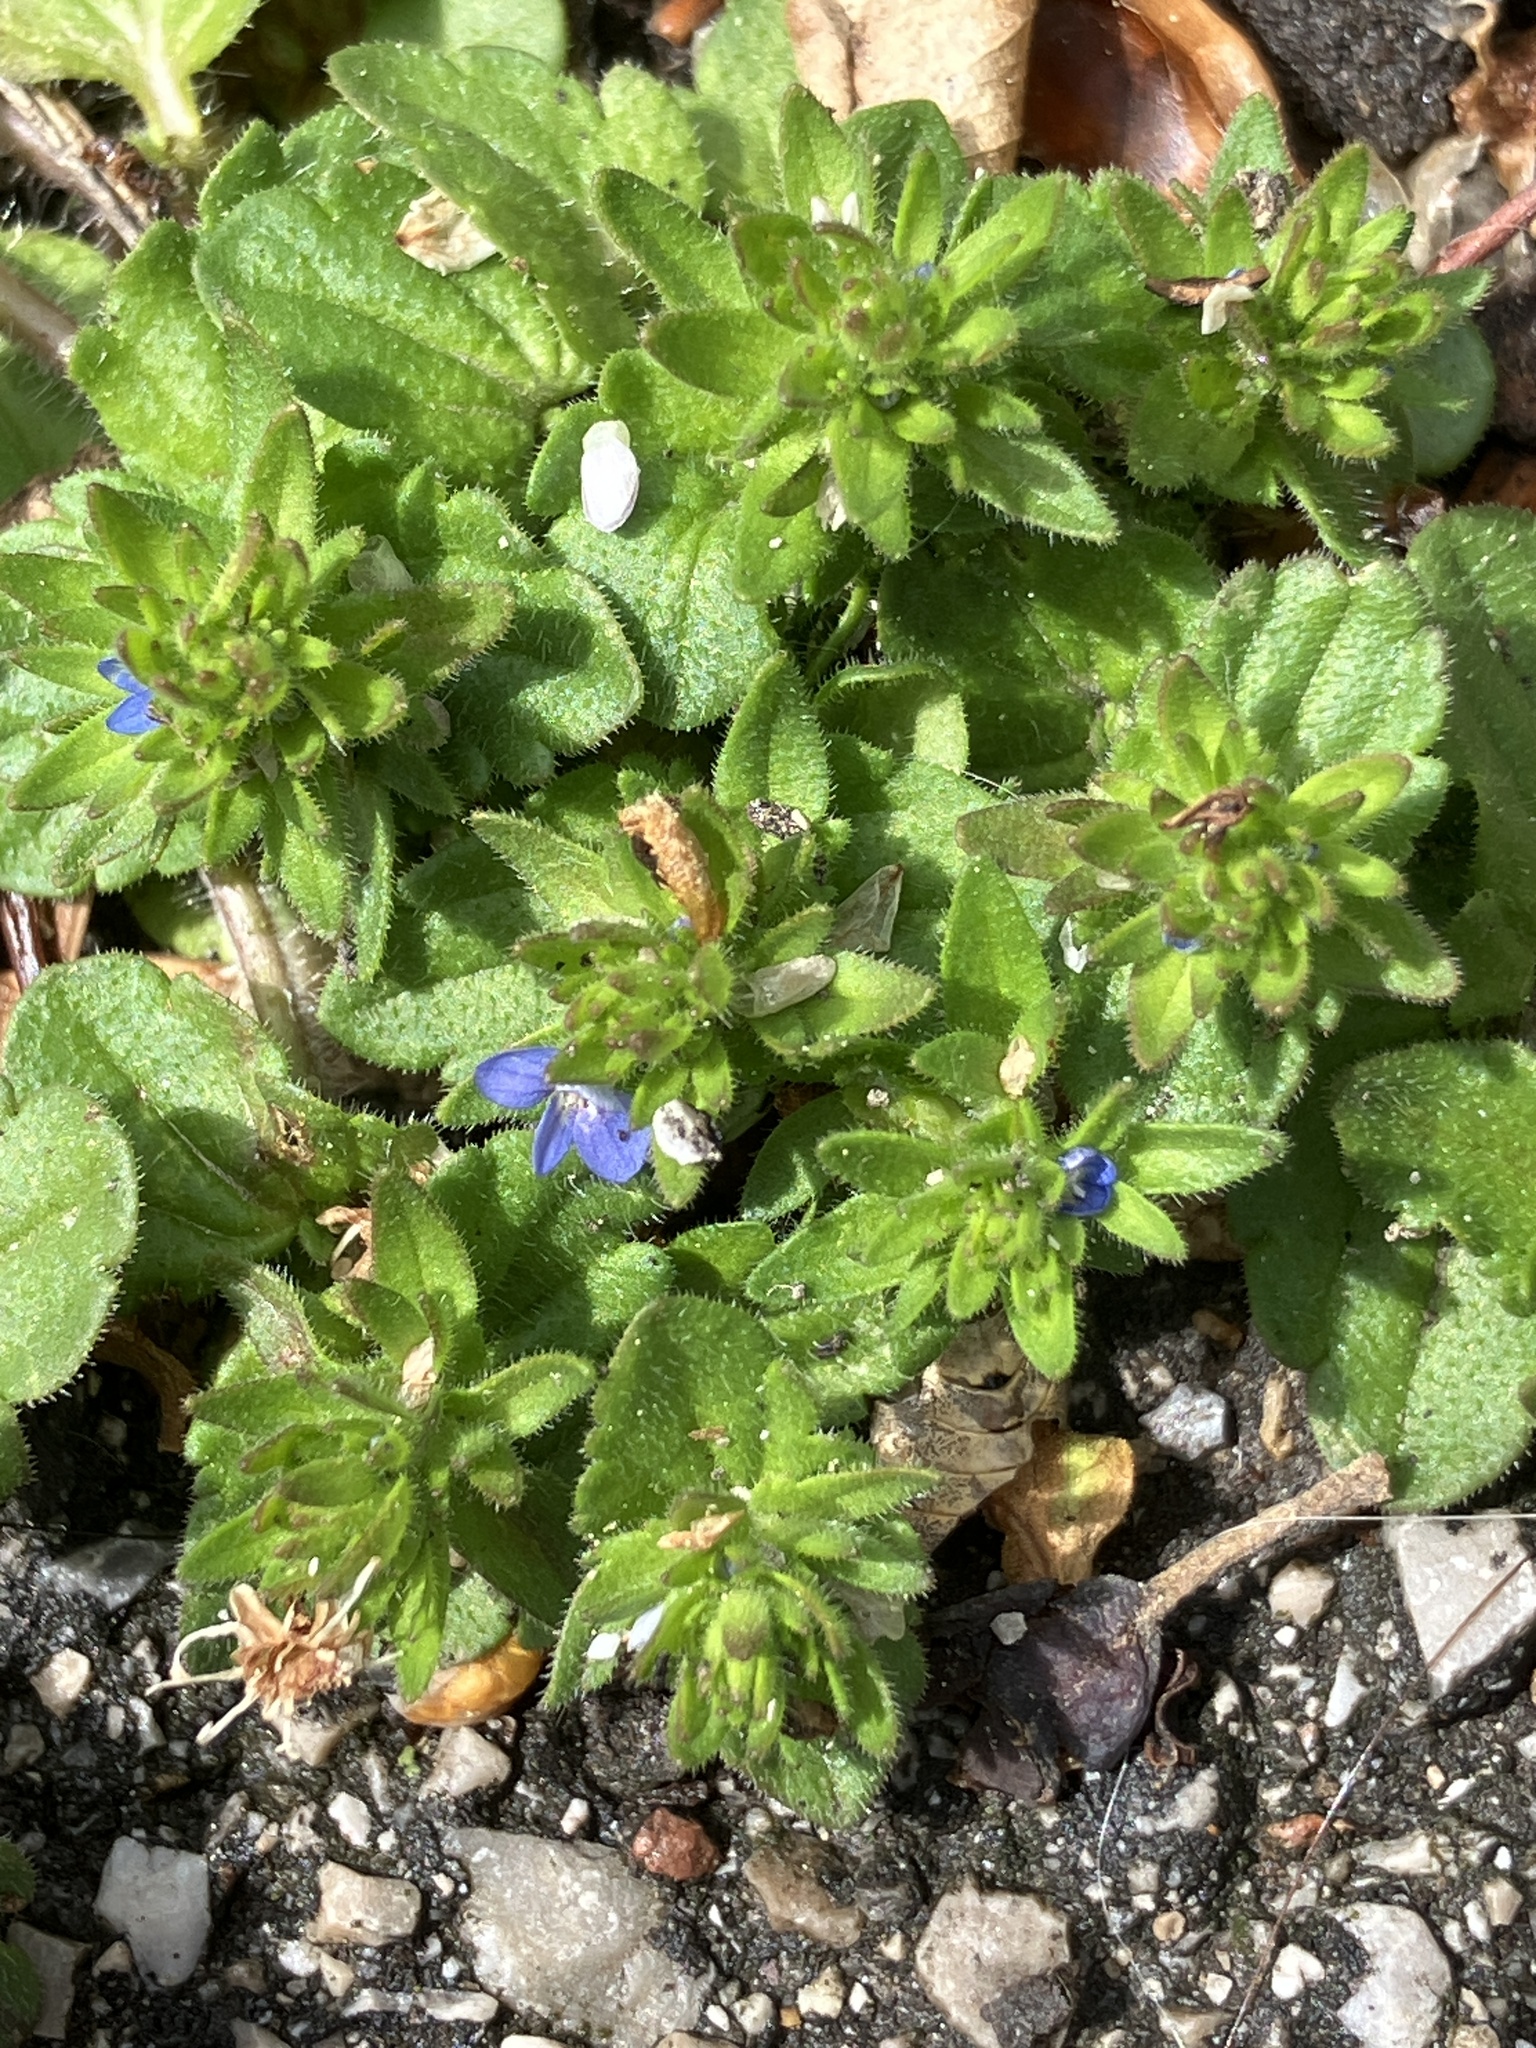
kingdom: Plantae
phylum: Tracheophyta
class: Magnoliopsida
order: Lamiales
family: Plantaginaceae
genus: Veronica
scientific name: Veronica arvensis
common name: Corn speedwell
